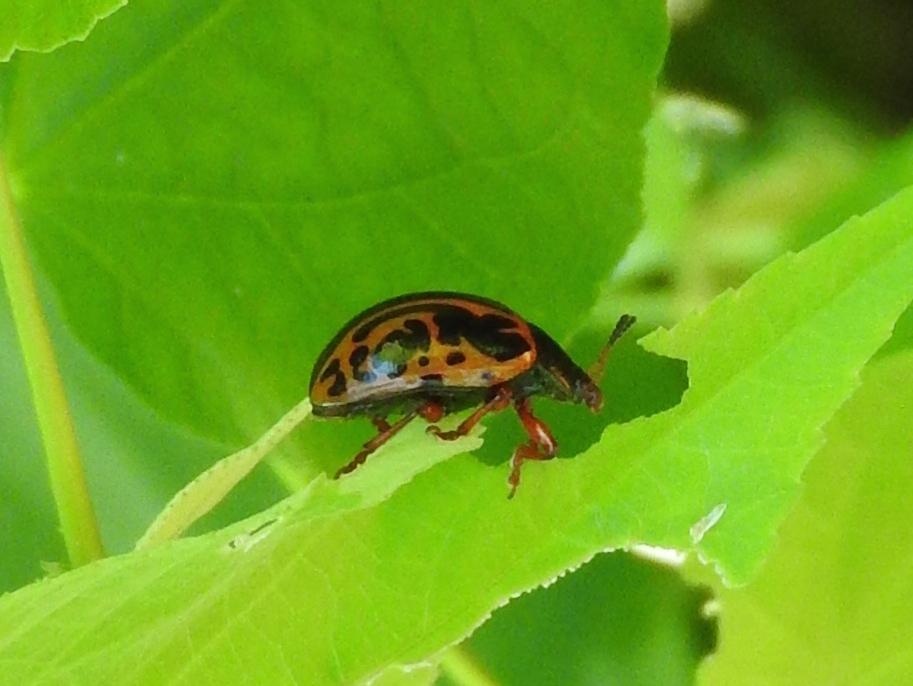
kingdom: Animalia
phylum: Arthropoda
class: Insecta
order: Coleoptera
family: Chrysomelidae
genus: Calligrapha
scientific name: Calligrapha discrepans
